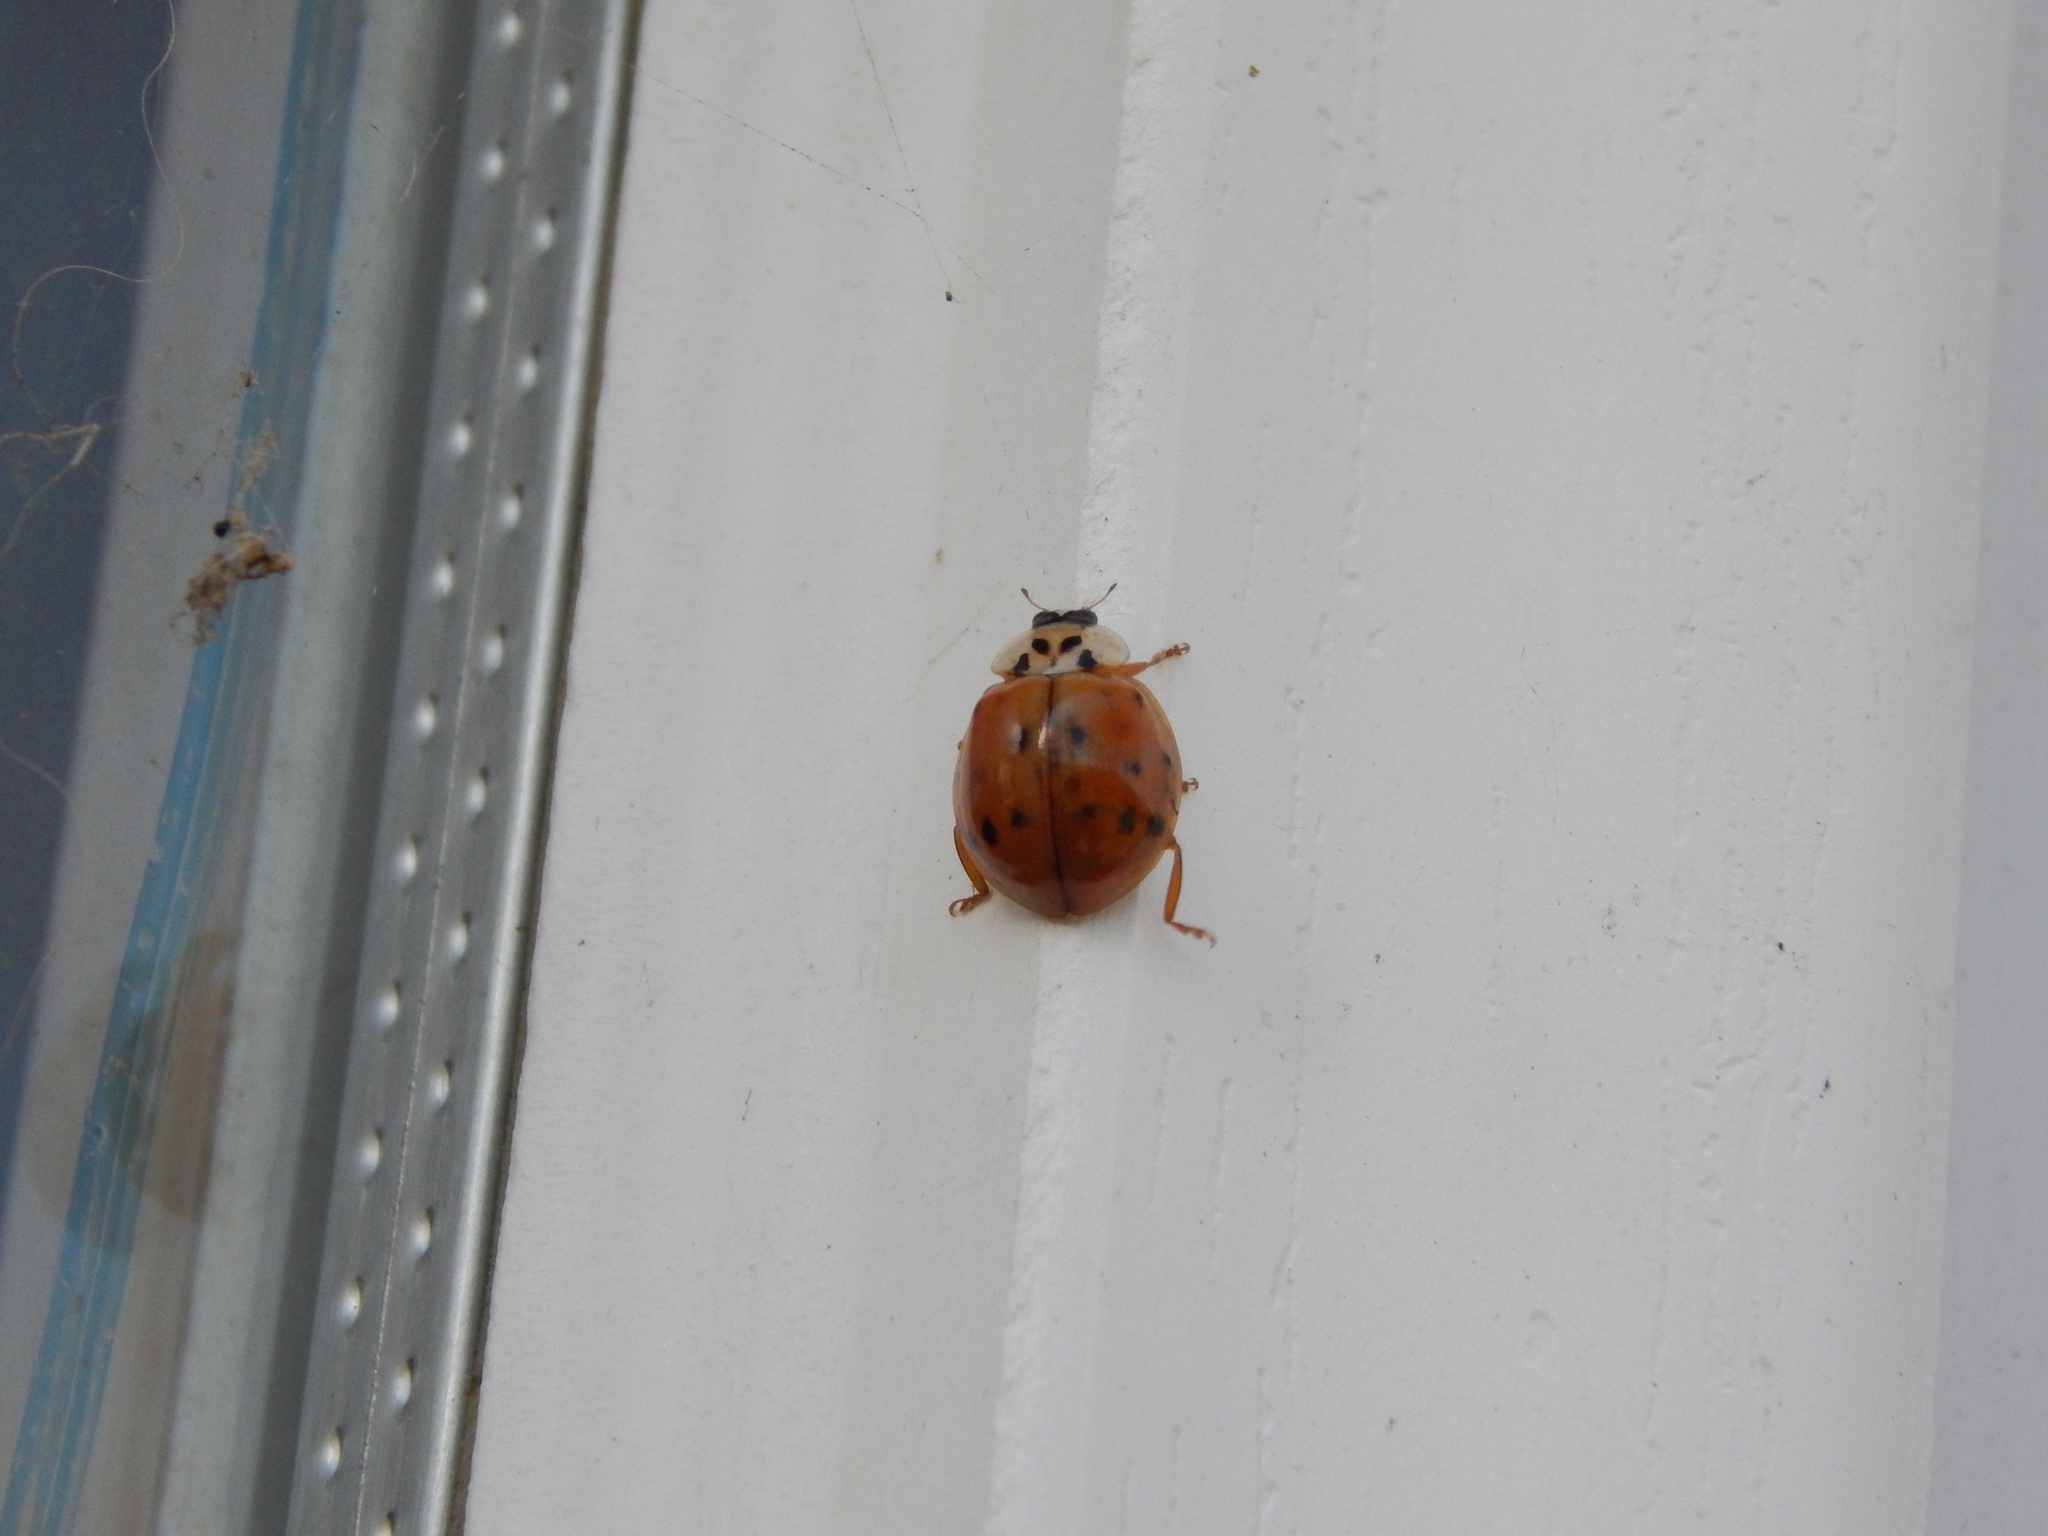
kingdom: Animalia
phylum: Arthropoda
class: Insecta
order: Coleoptera
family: Coccinellidae
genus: Harmonia
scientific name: Harmonia axyridis
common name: Harlequin ladybird
